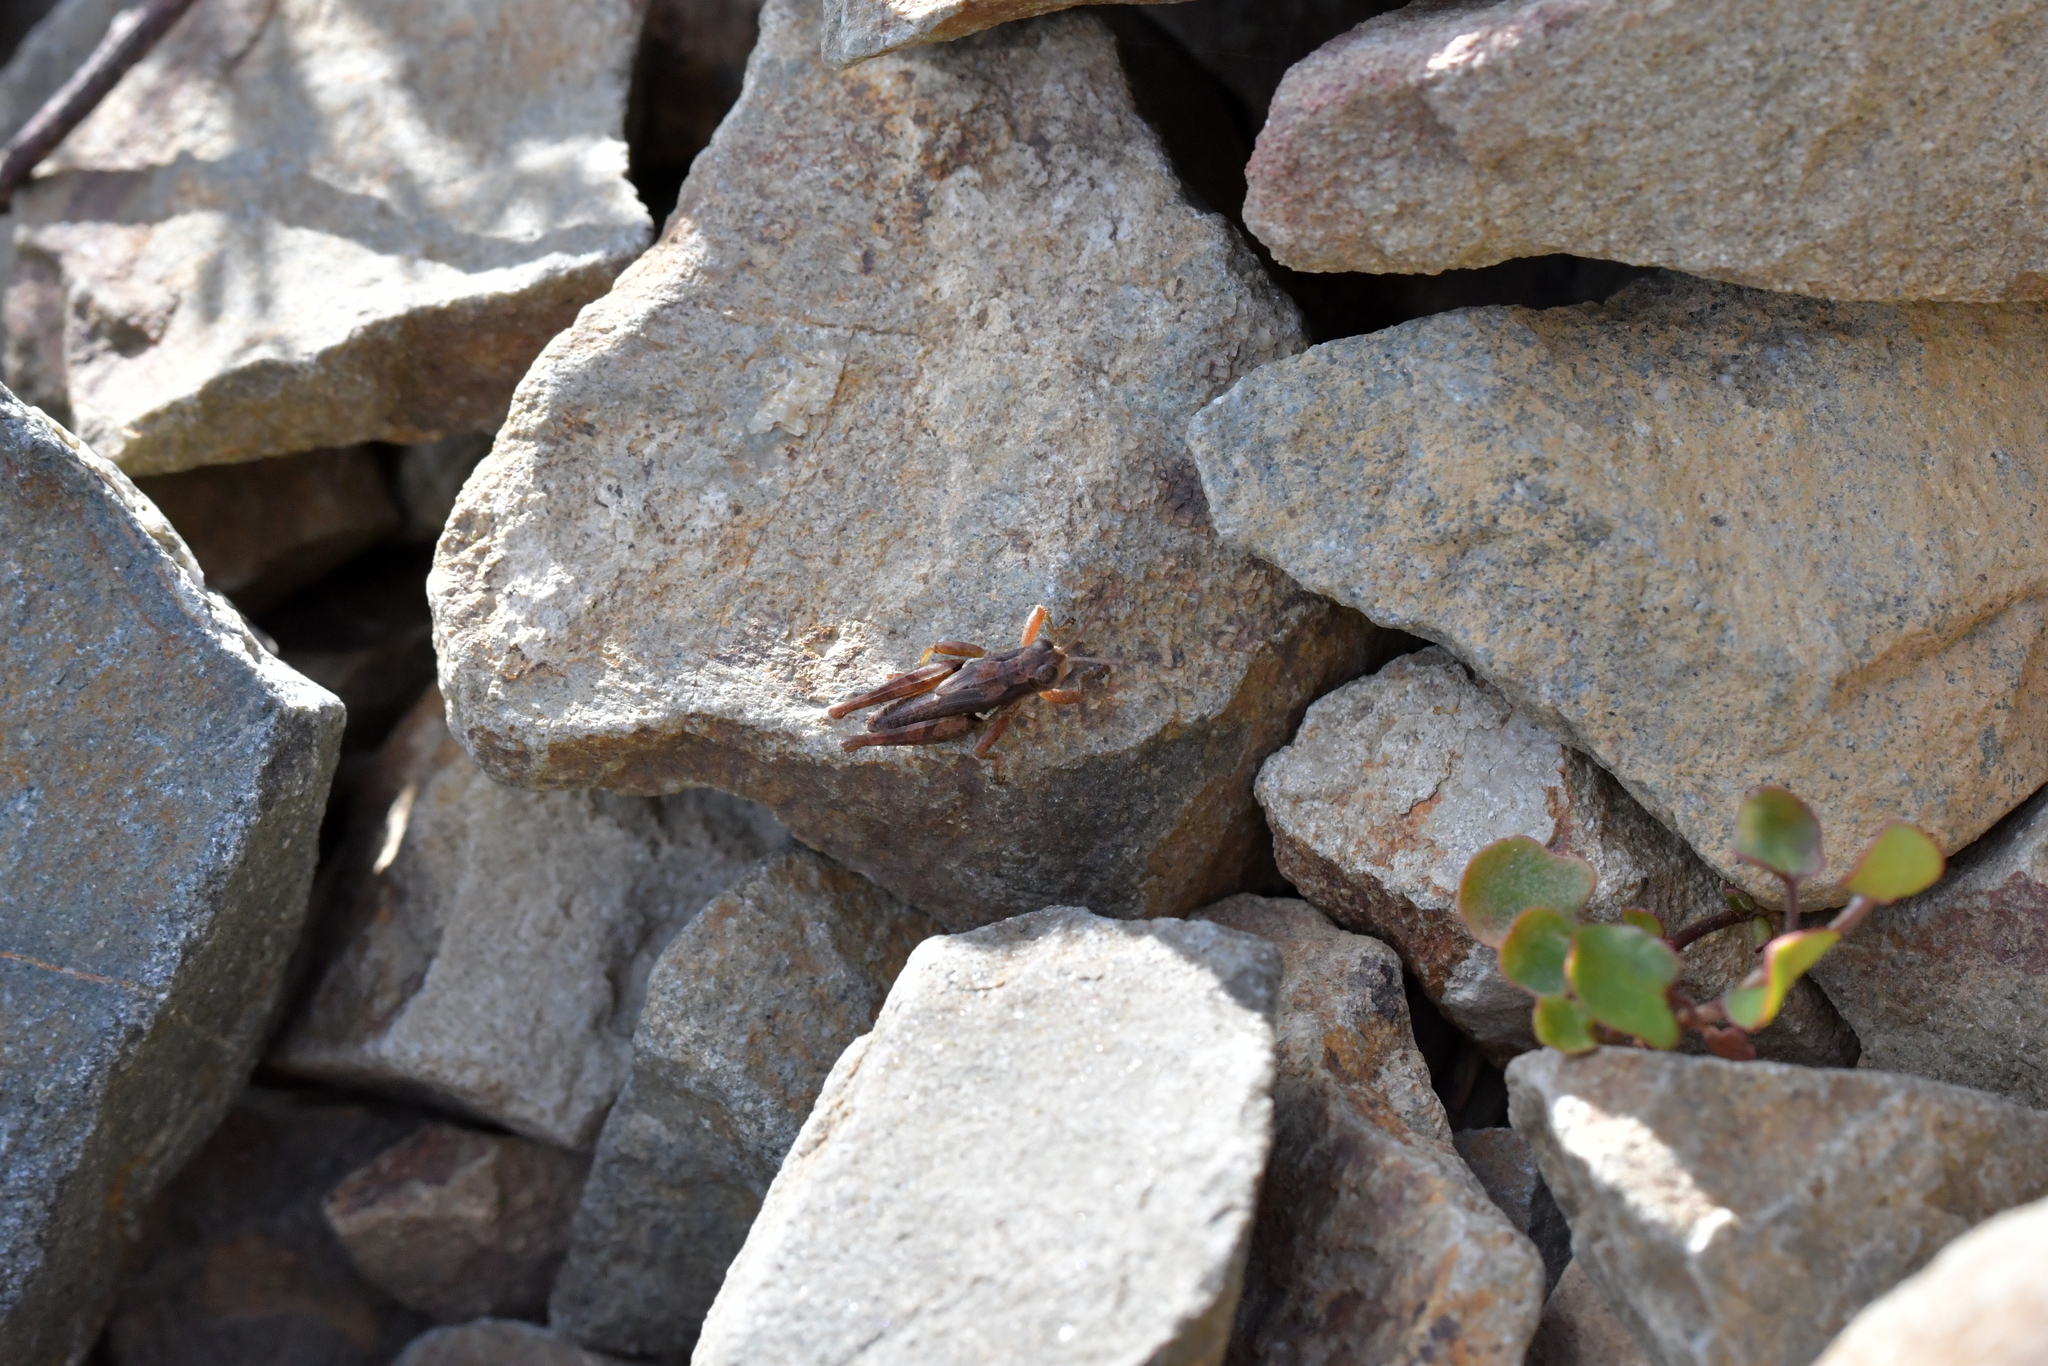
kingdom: Animalia
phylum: Arthropoda
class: Insecta
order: Orthoptera
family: Acrididae
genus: Phaulacridium
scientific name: Phaulacridium marginale
